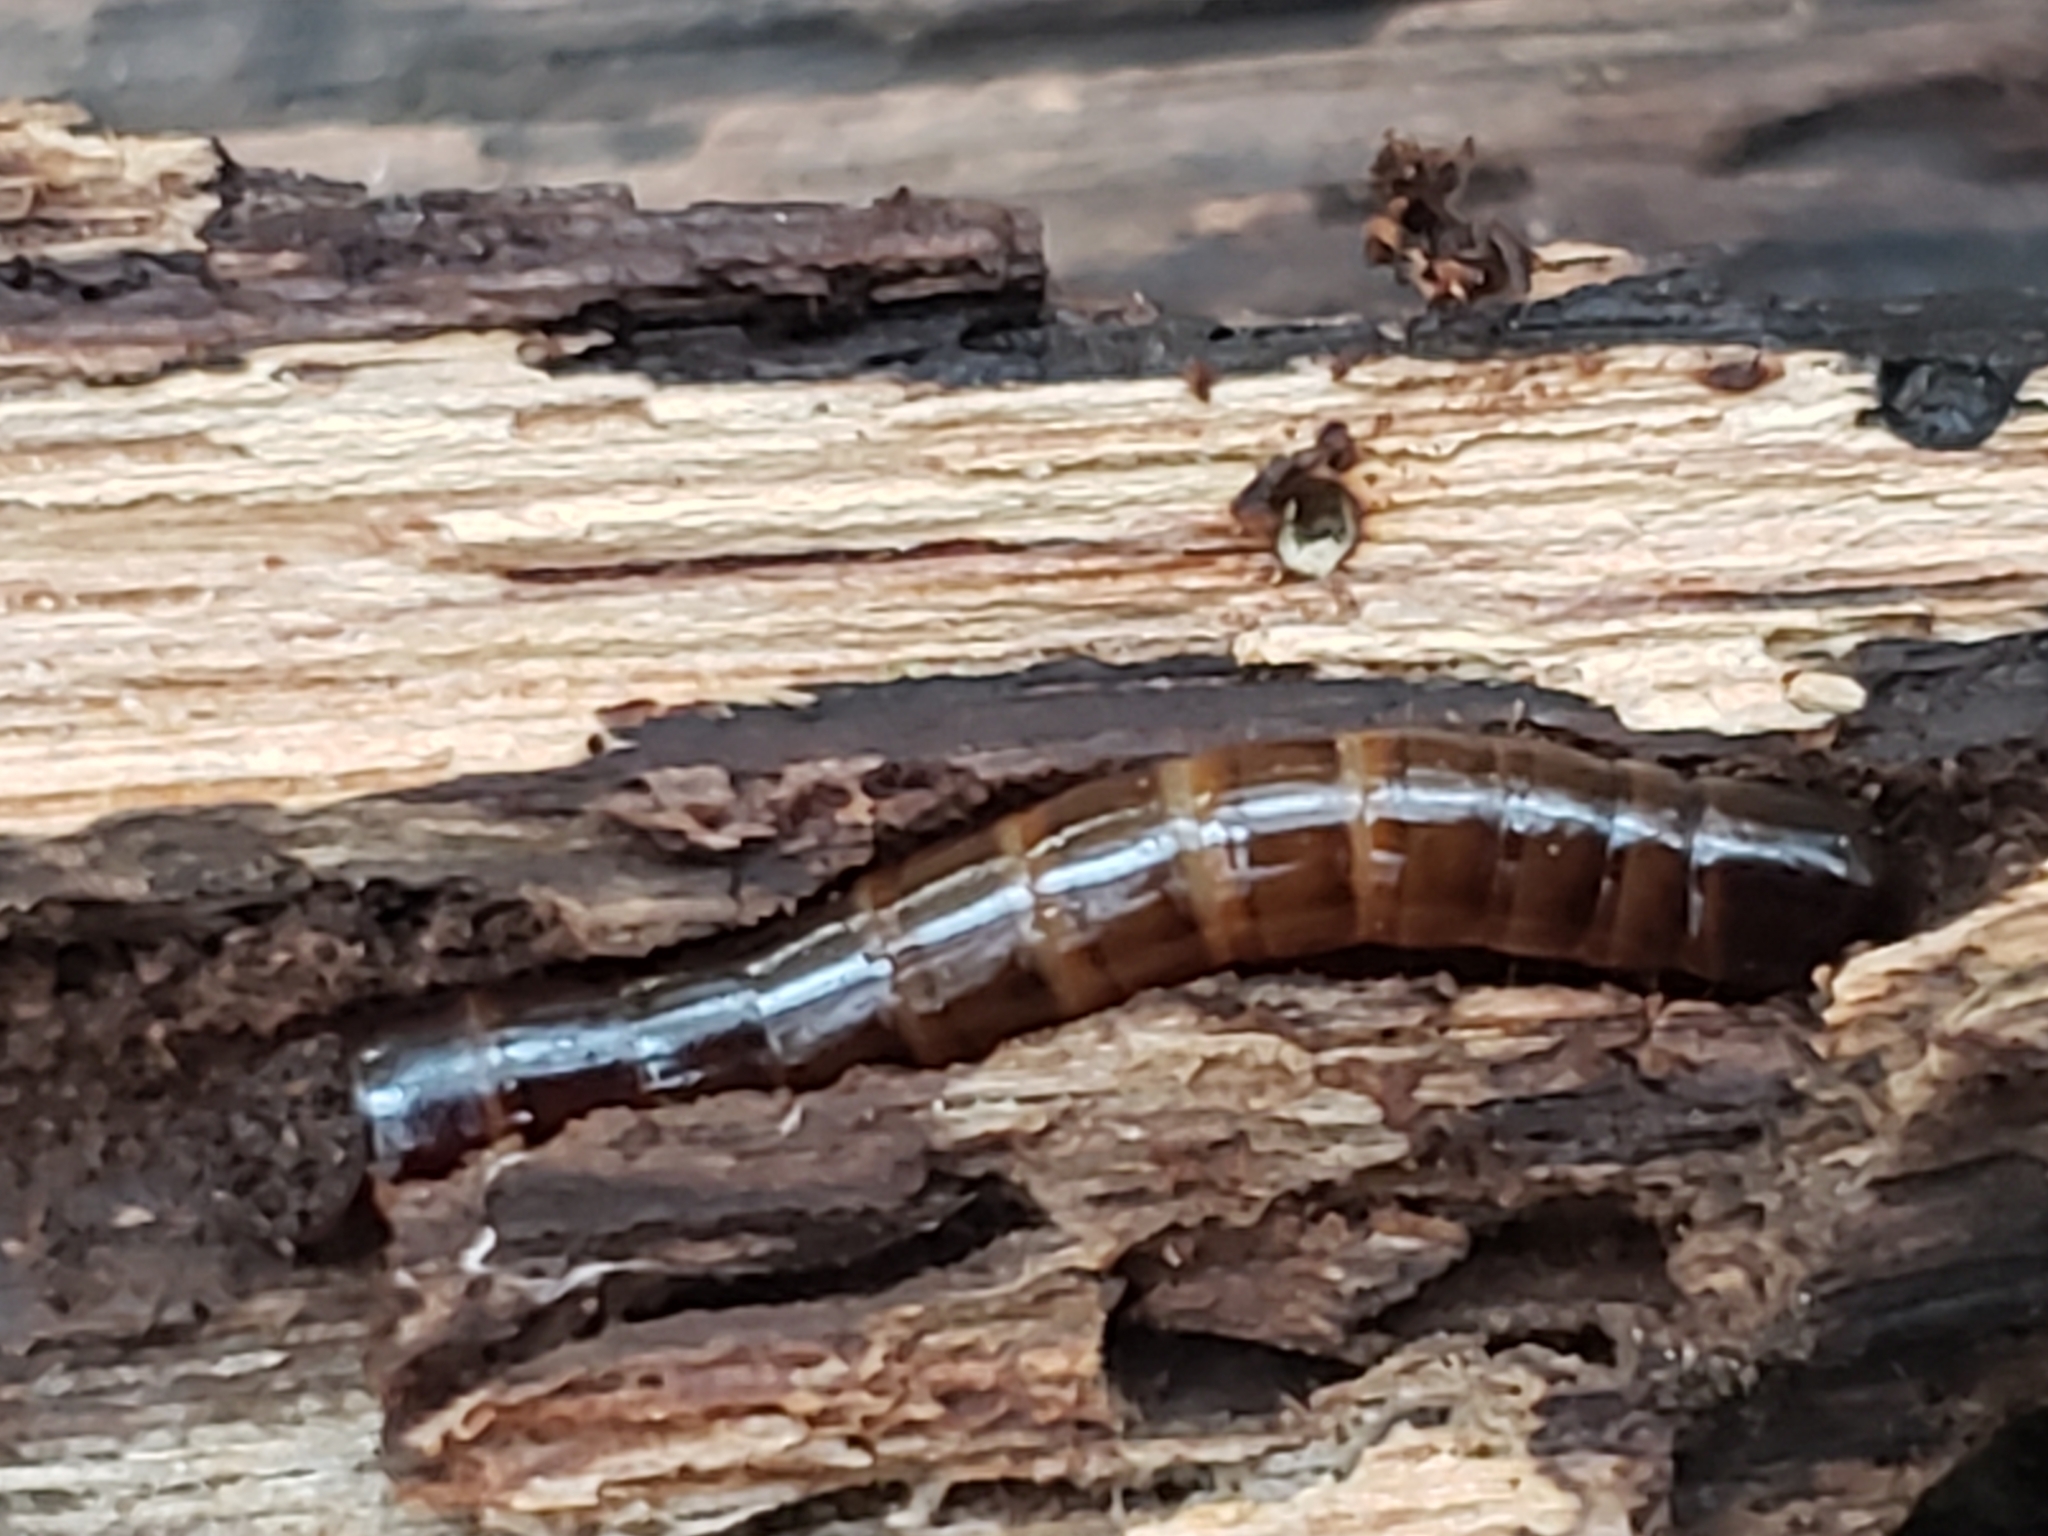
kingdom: Animalia
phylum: Arthropoda
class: Insecta
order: Coleoptera
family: Tenebrionidae
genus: Meracantha
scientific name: Meracantha contracta
